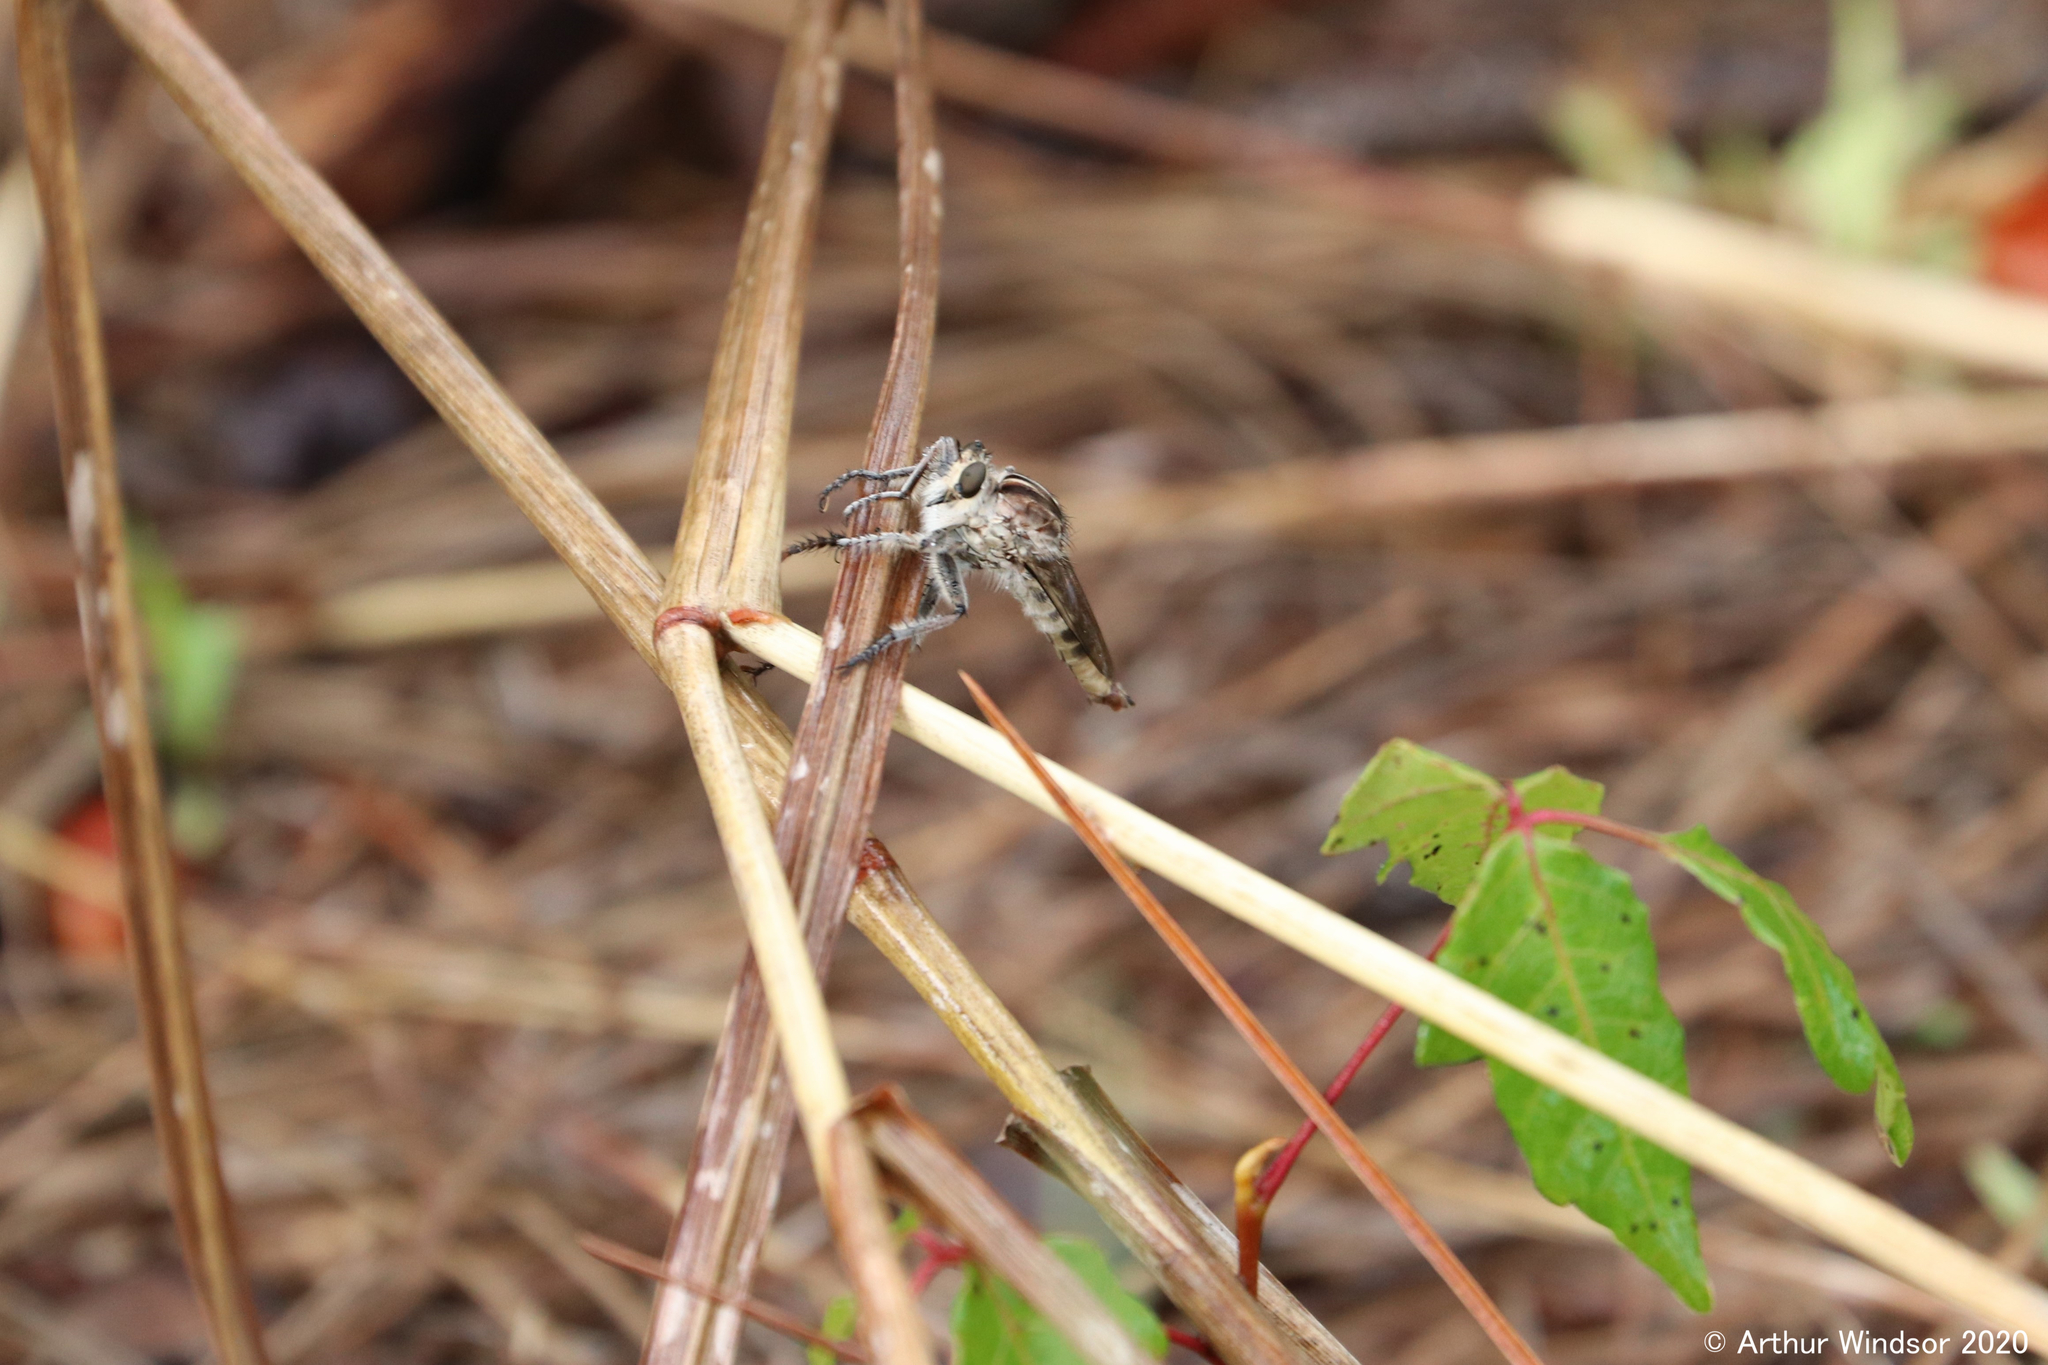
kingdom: Animalia
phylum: Arthropoda
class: Insecta
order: Diptera
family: Asilidae
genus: Triorla
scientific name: Triorla interrupta
